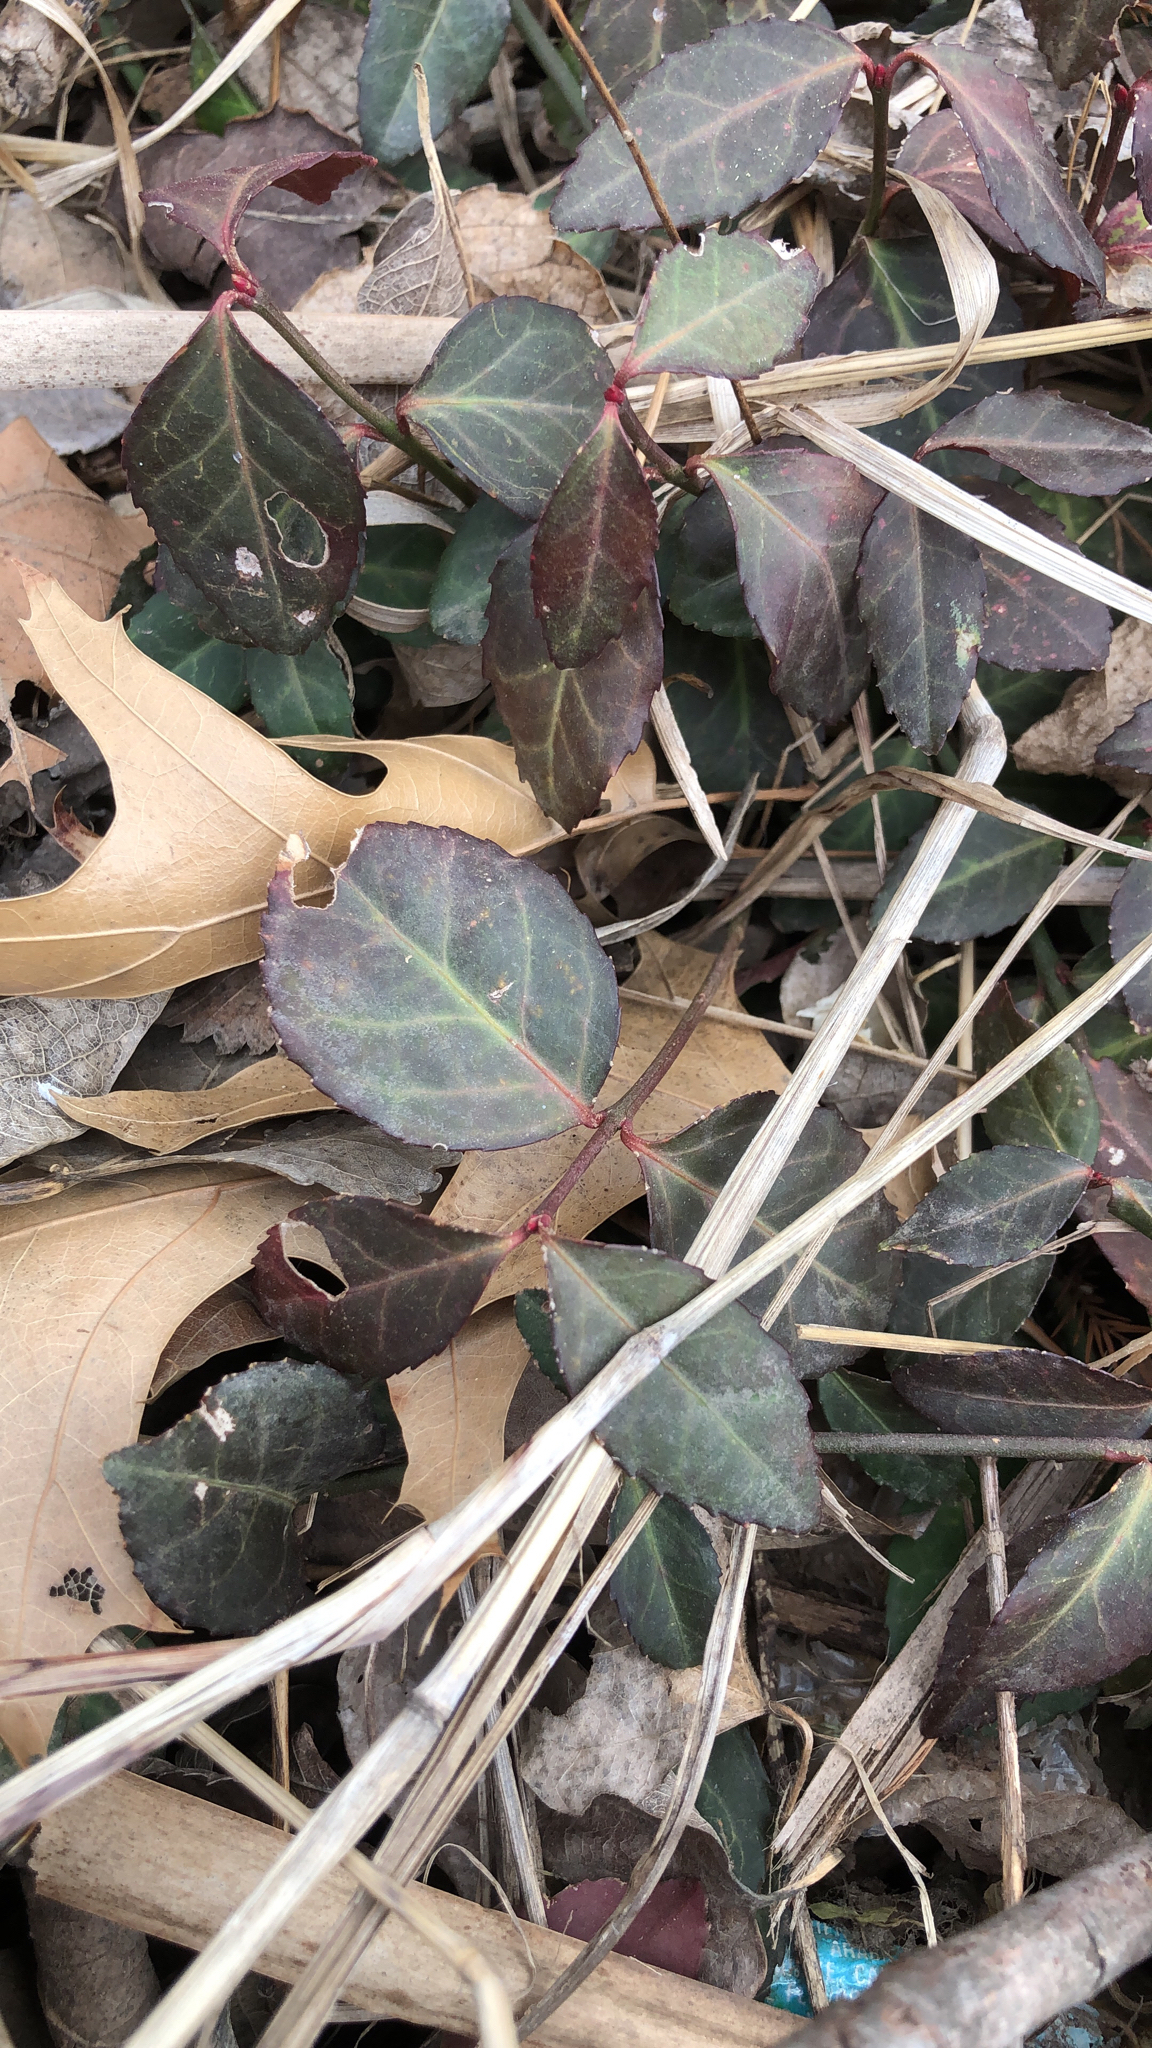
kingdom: Plantae
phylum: Tracheophyta
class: Magnoliopsida
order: Celastrales
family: Celastraceae
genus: Euonymus
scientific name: Euonymus fortunei
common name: Climbing euonymus
